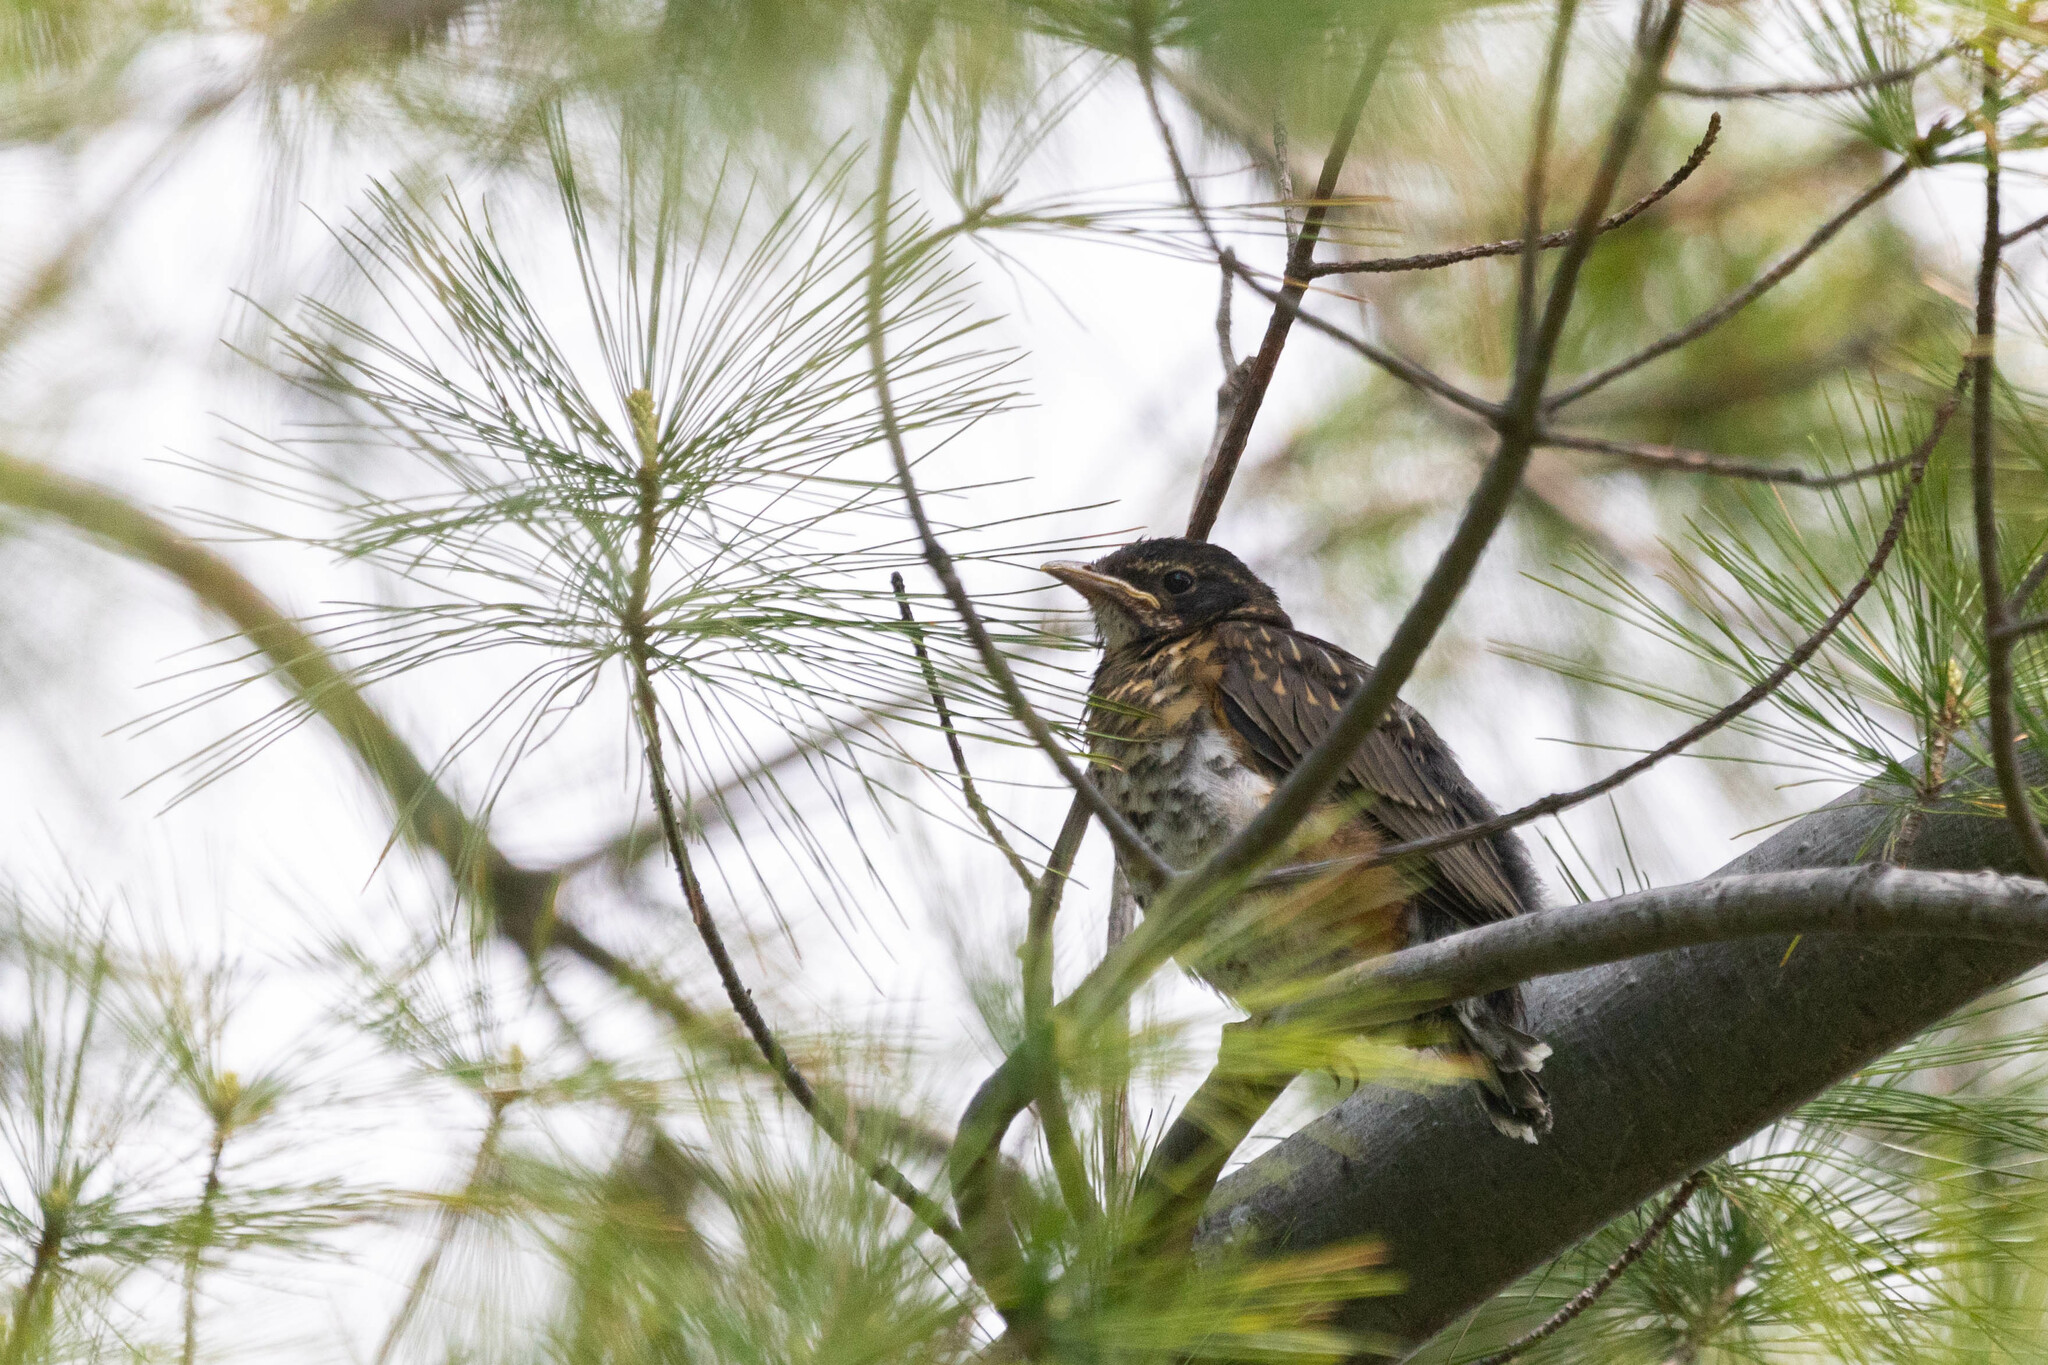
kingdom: Animalia
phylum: Chordata
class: Aves
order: Passeriformes
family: Turdidae
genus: Turdus
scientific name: Turdus migratorius
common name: American robin
